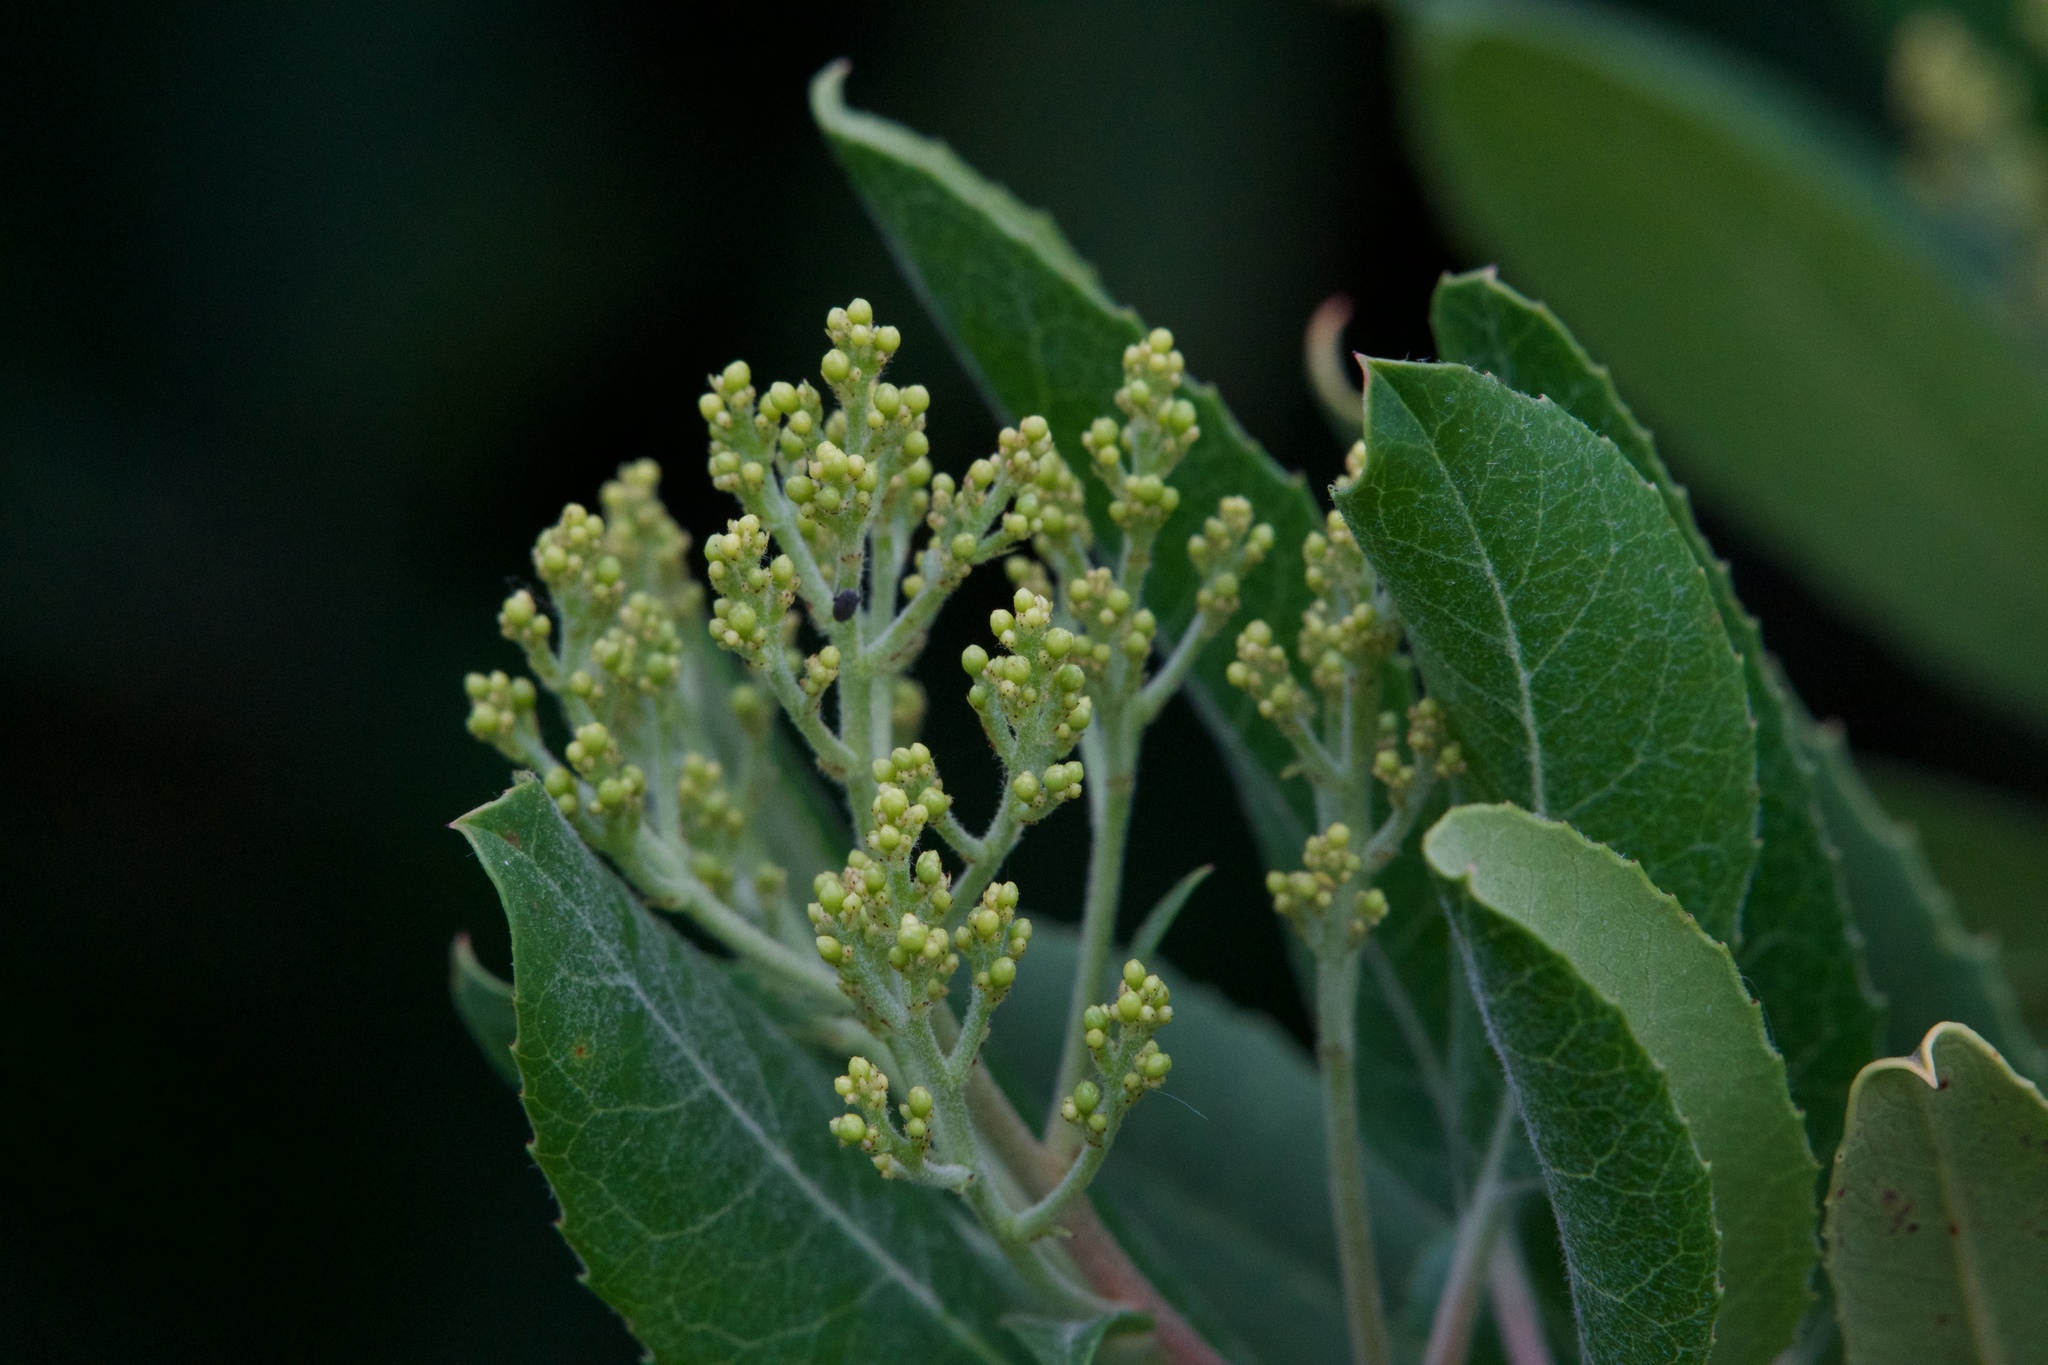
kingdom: Plantae
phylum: Tracheophyta
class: Magnoliopsida
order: Rosales
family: Rosaceae
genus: Heteromeles
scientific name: Heteromeles arbutifolia
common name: California-holly
